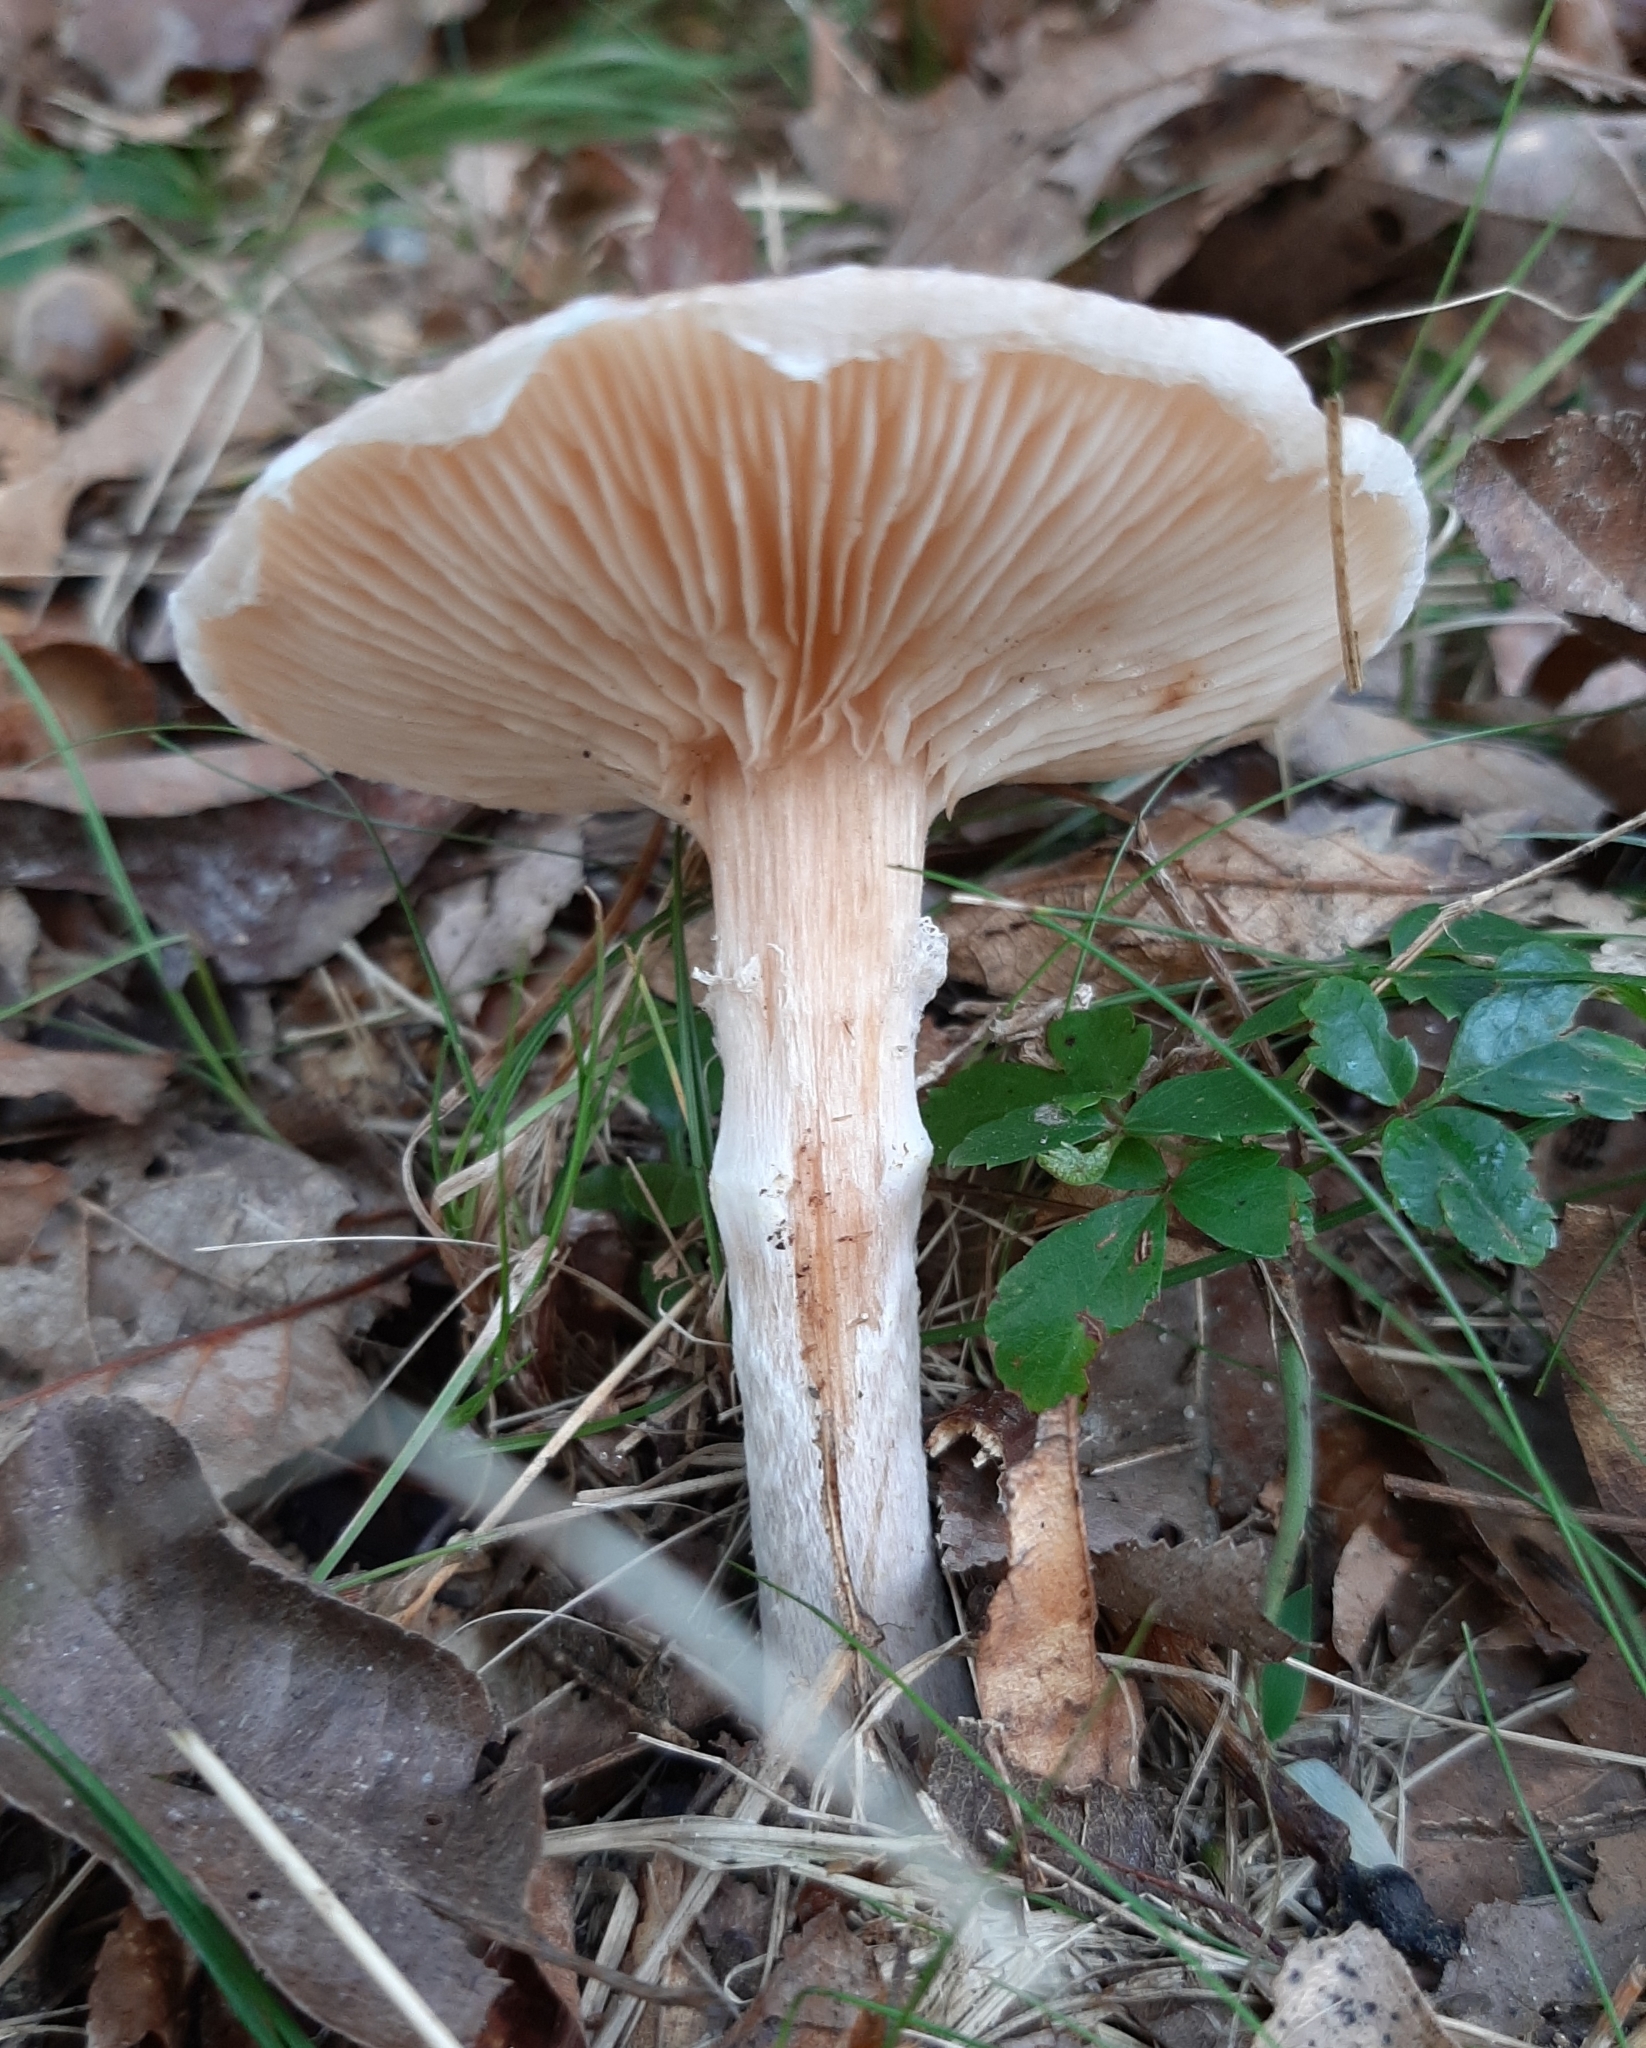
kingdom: Fungi
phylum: Basidiomycota
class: Agaricomycetes
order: Agaricales
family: Physalacriaceae
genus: Armillaria
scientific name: Armillaria mellea
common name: Honey fungus
